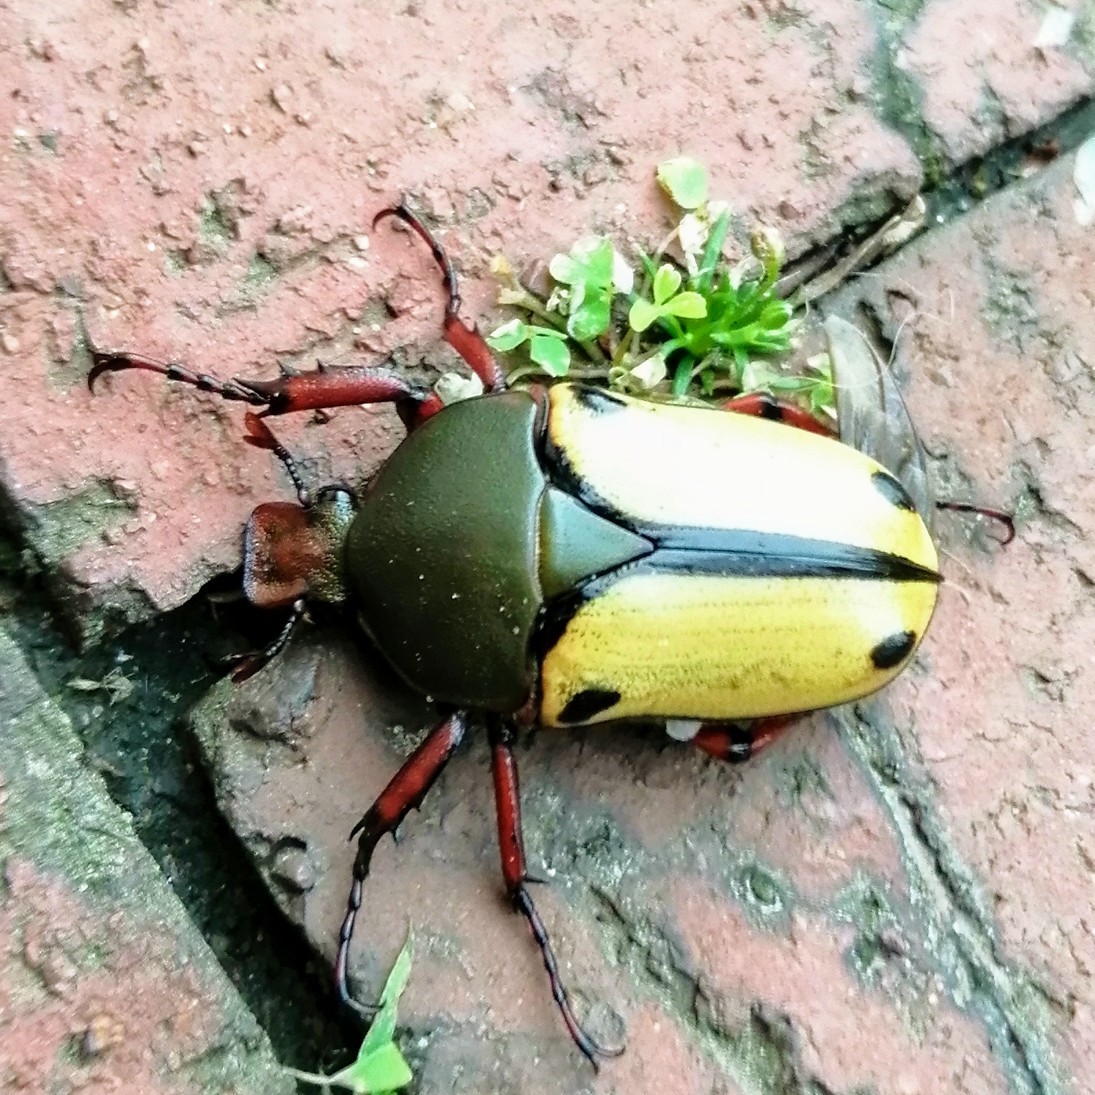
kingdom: Animalia
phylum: Arthropoda
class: Insecta
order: Coleoptera
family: Scarabaeidae
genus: Eudicella
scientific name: Eudicella smithii
